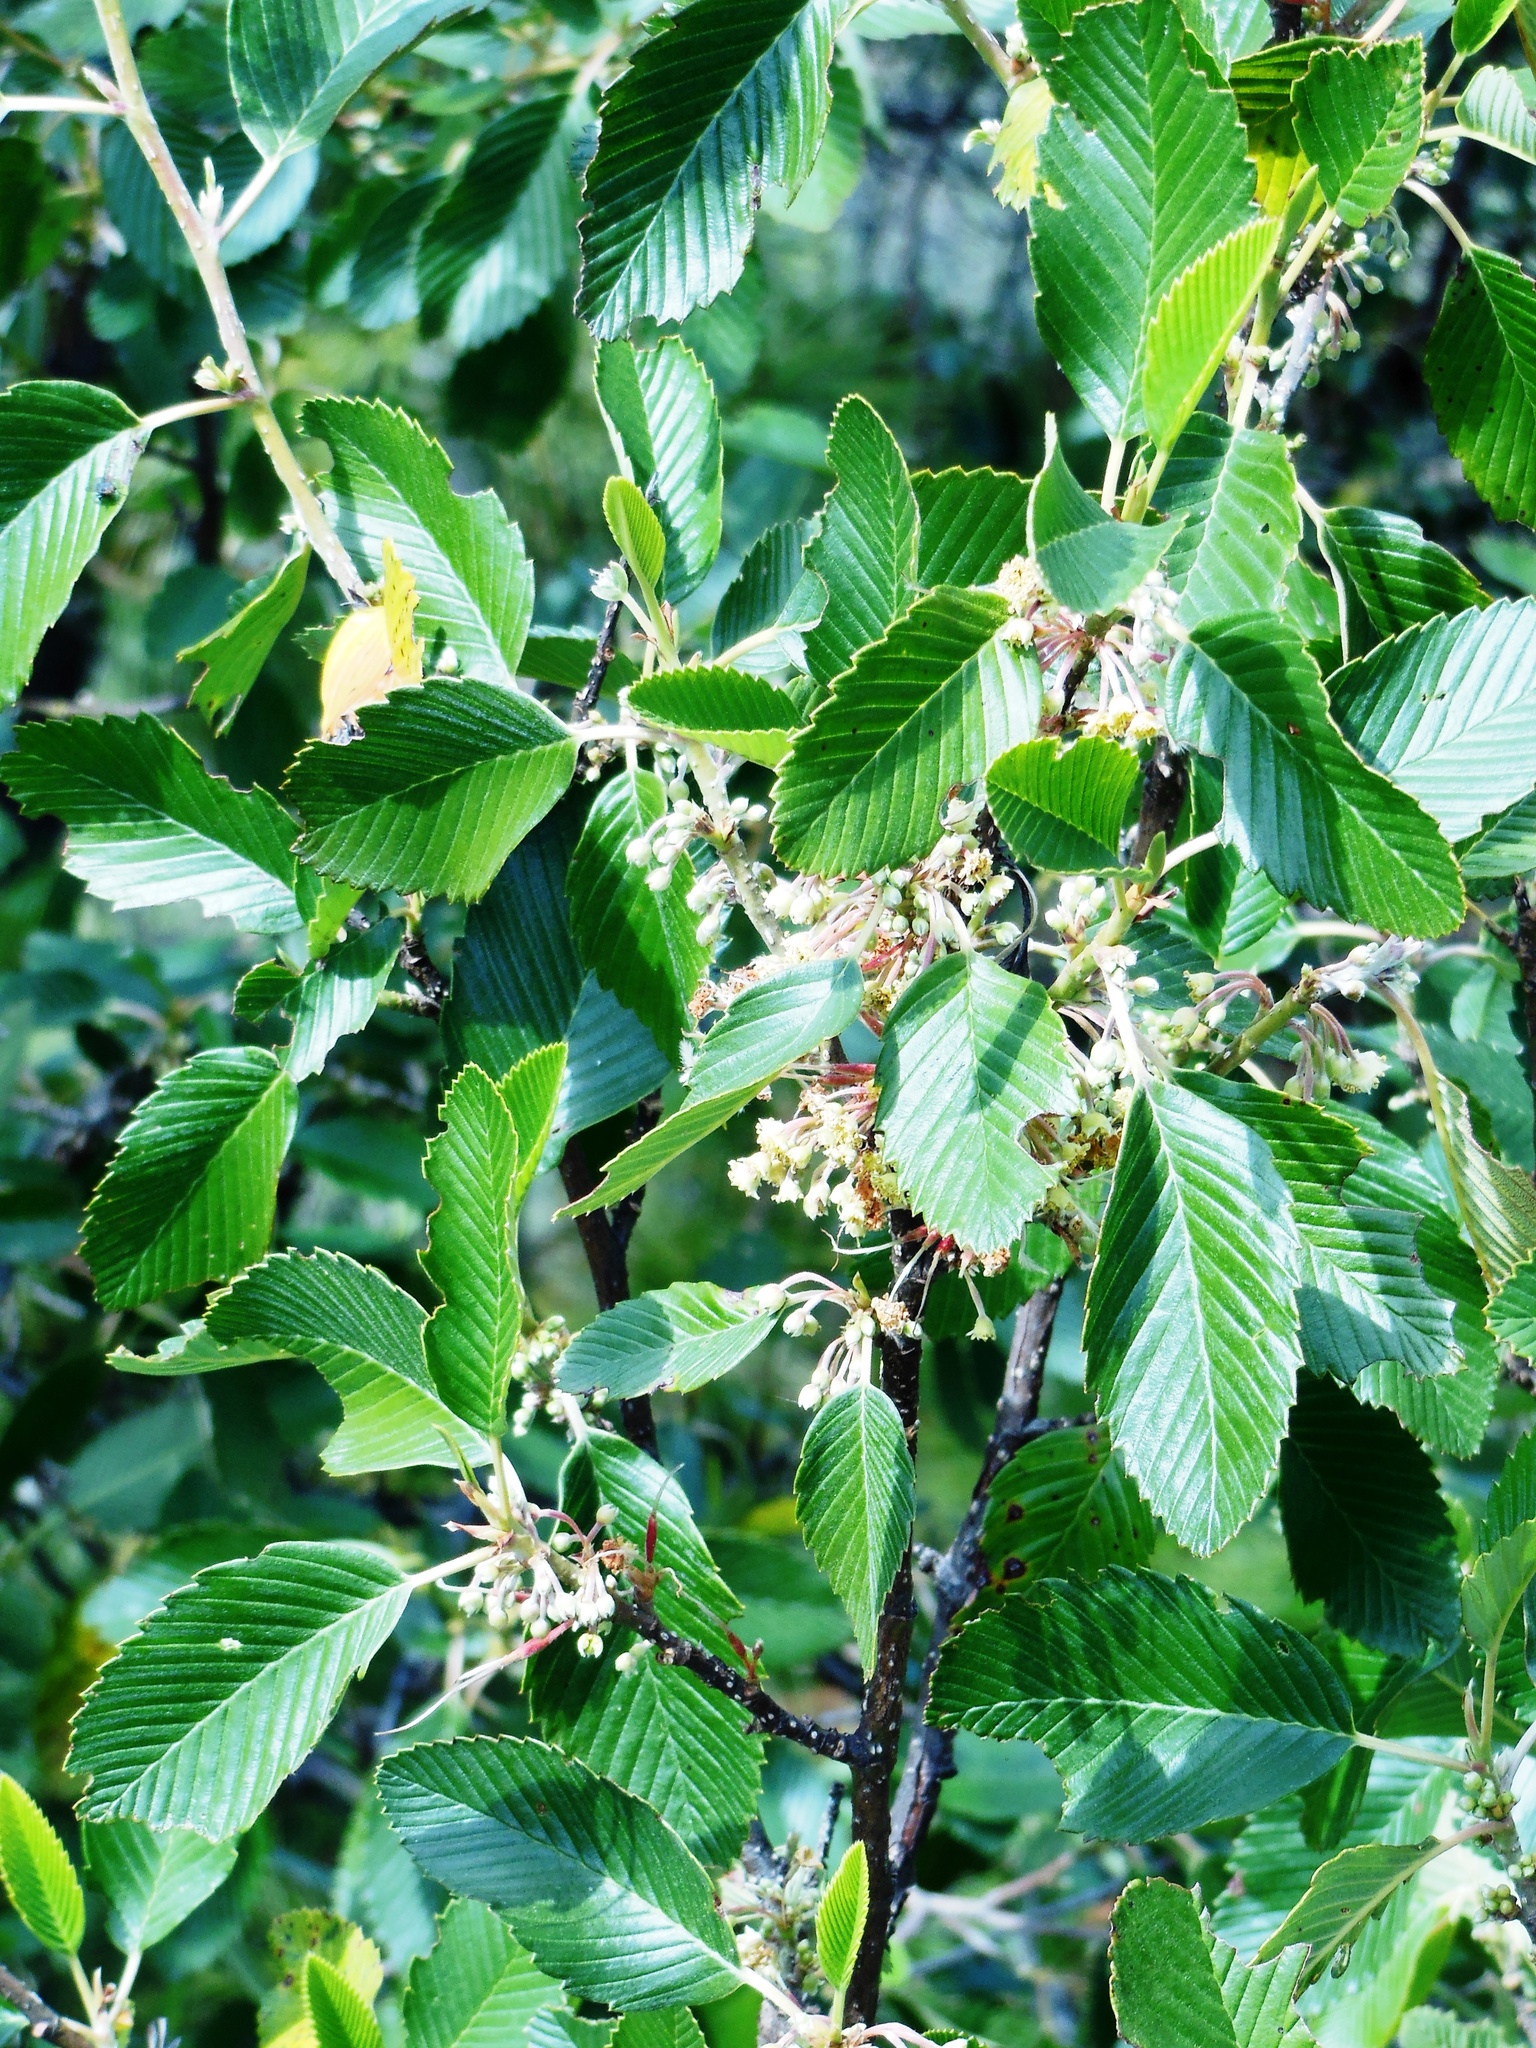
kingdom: Plantae
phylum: Tracheophyta
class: Magnoliopsida
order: Rosales
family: Rosaceae
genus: Cercocarpus
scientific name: Cercocarpus macrophyllus
